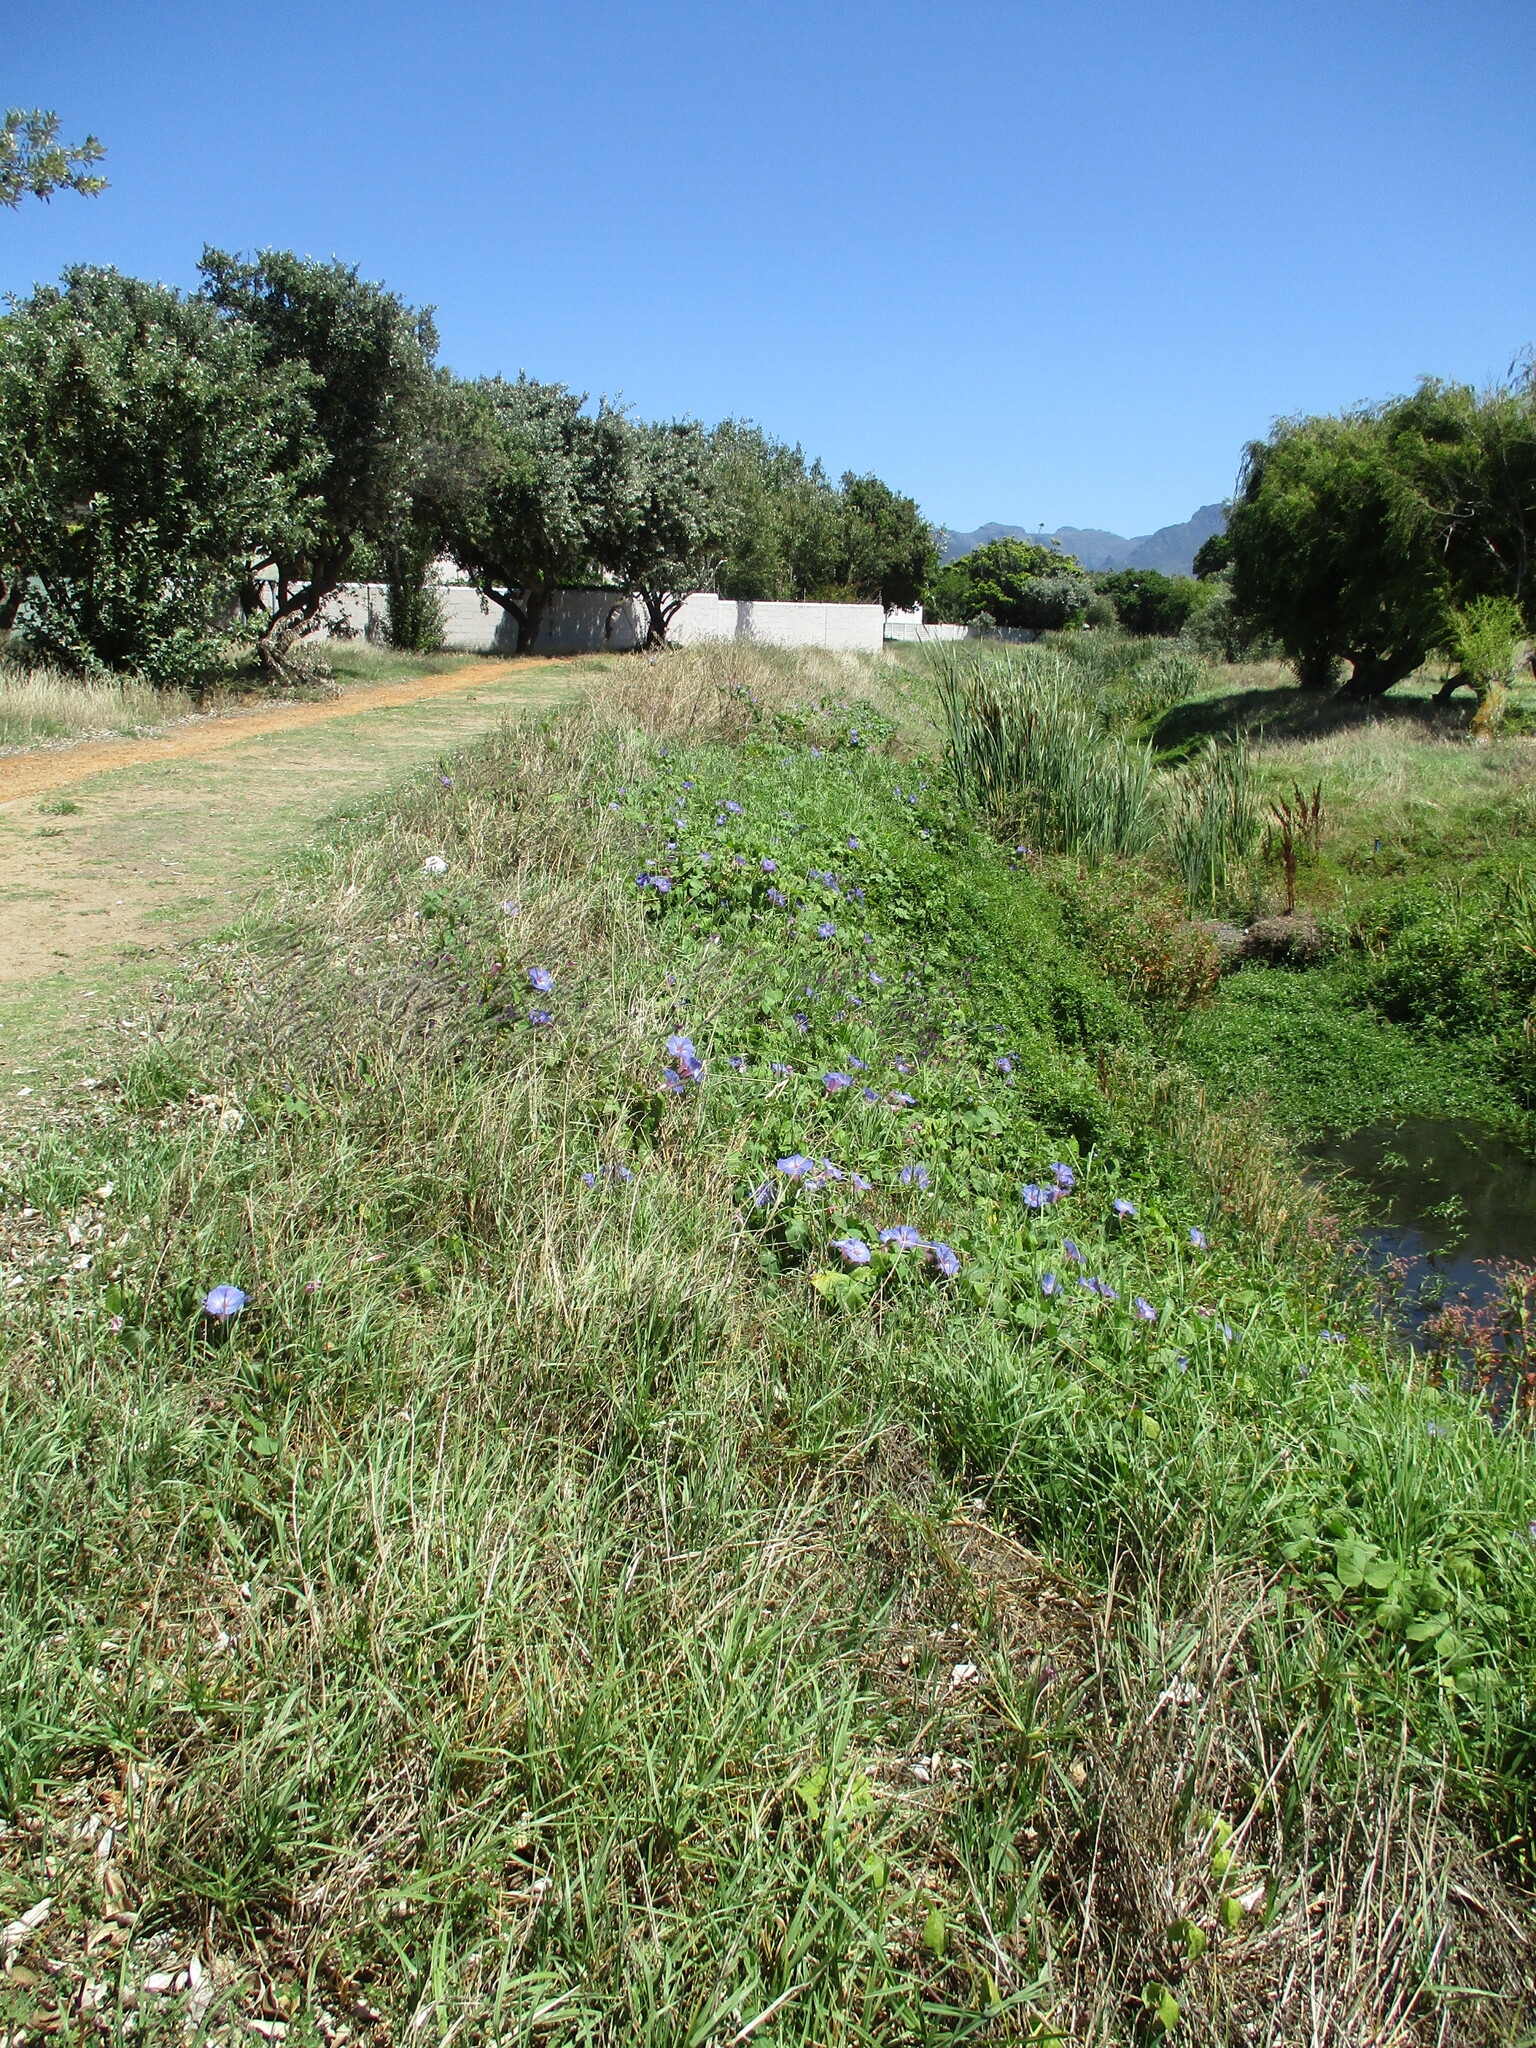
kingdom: Plantae
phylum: Tracheophyta
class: Magnoliopsida
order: Solanales
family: Convolvulaceae
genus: Ipomoea
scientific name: Ipomoea indica
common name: Blue dawnflower
